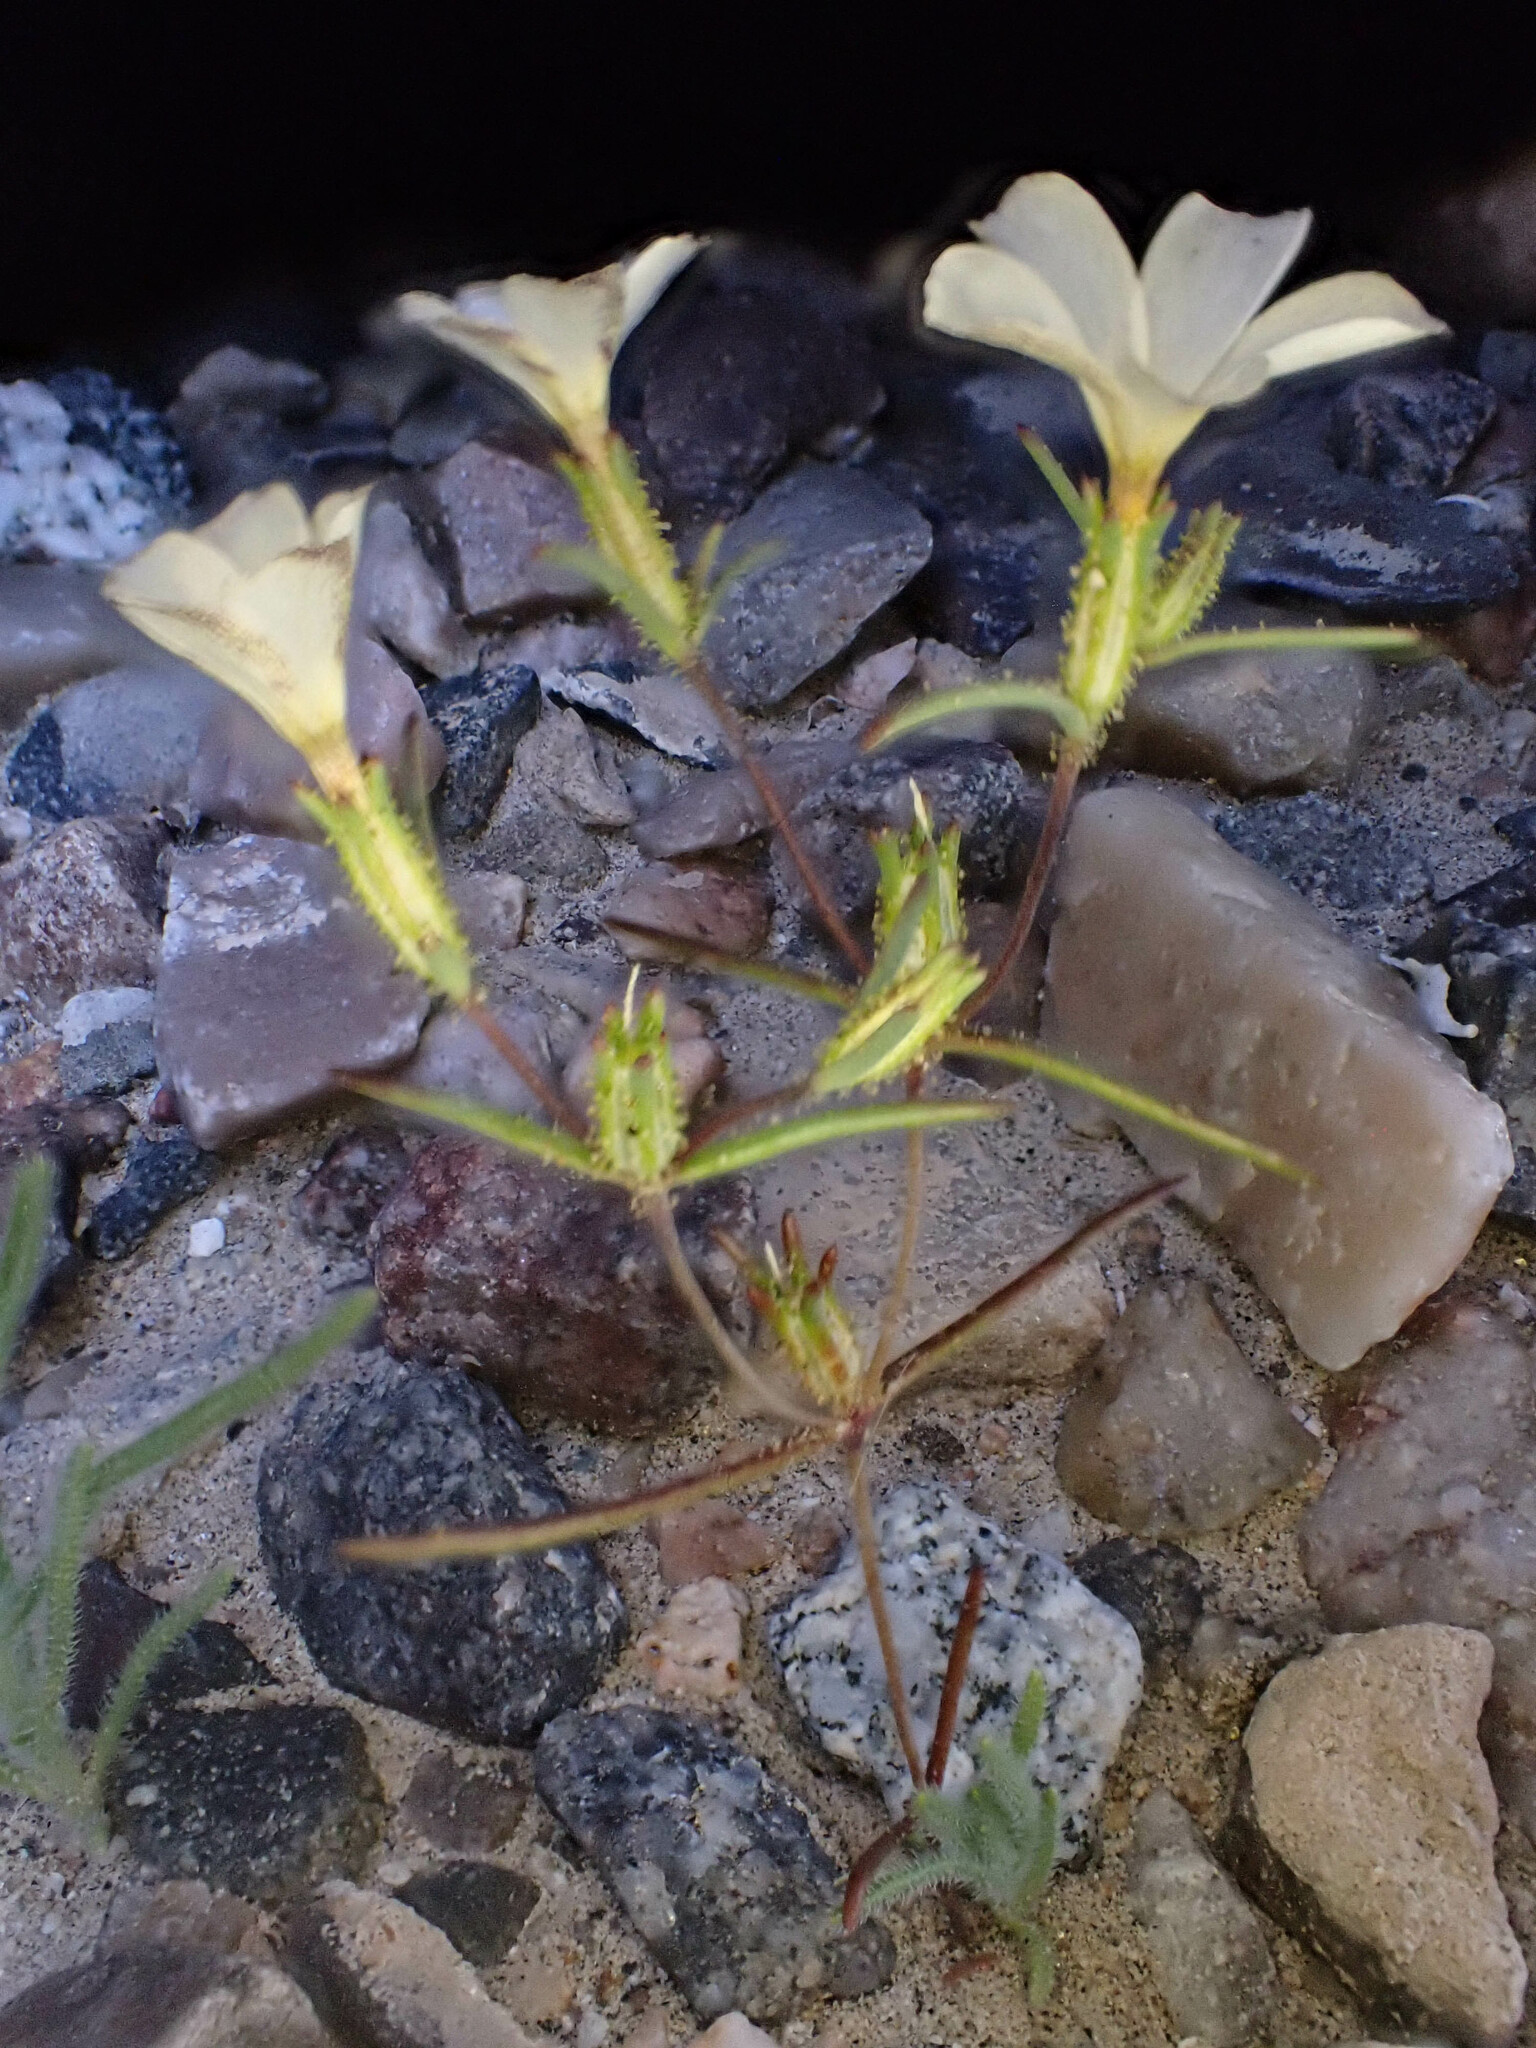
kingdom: Plantae
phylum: Tracheophyta
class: Magnoliopsida
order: Ericales
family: Polemoniaceae
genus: Linanthus
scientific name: Linanthus jonesii
